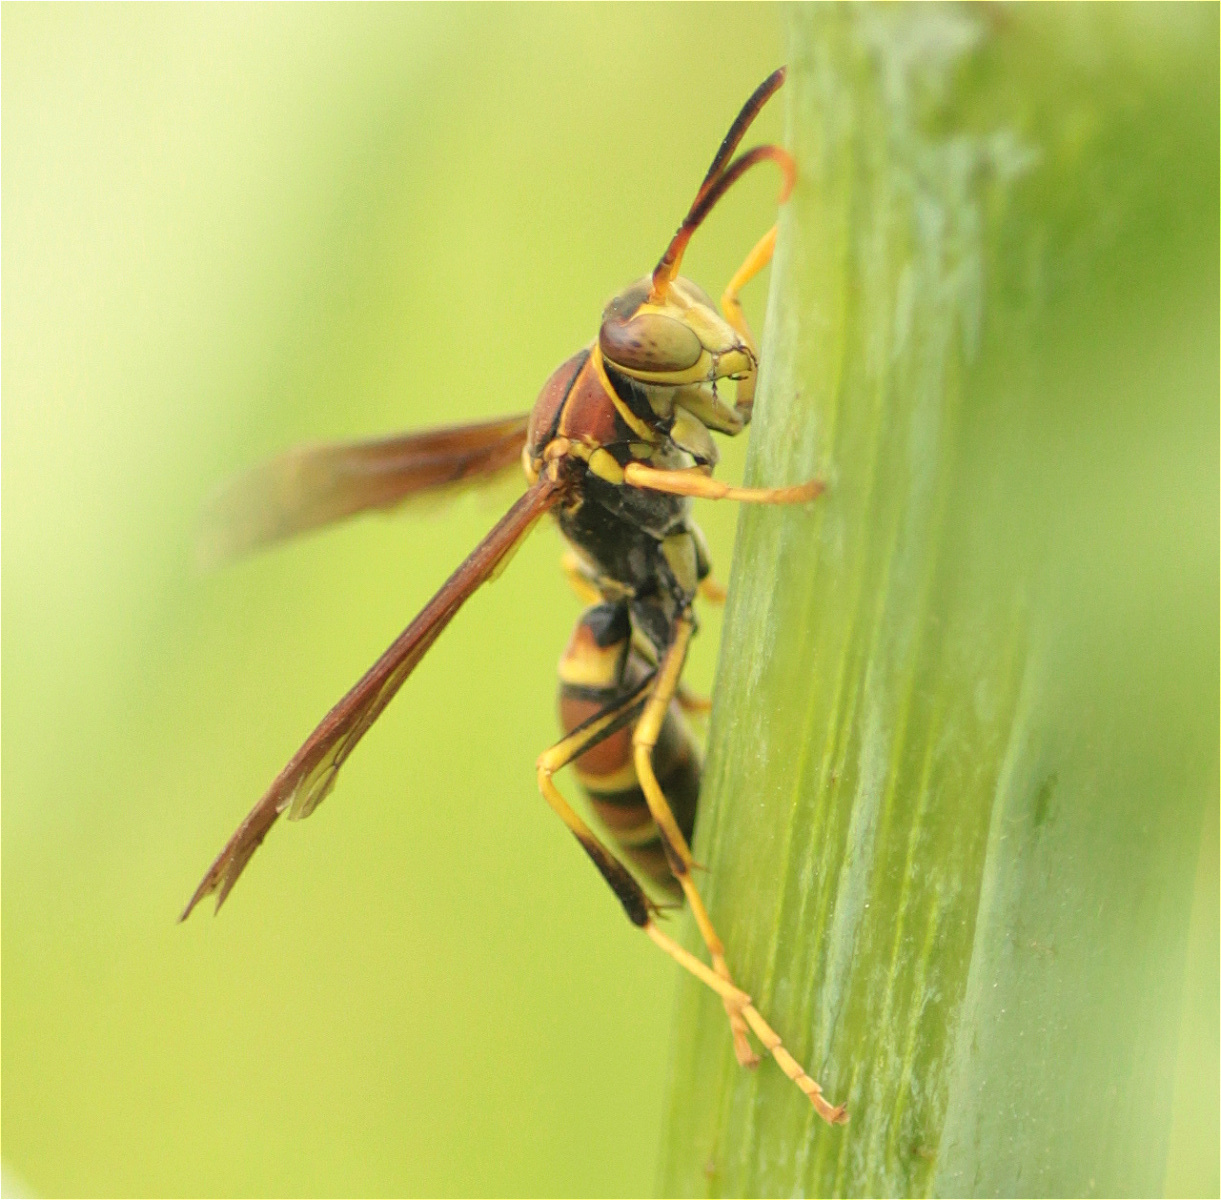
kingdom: Animalia
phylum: Arthropoda
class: Insecta
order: Hymenoptera
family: Eumenidae
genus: Polistes
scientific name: Polistes instabilis
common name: Unstable paper wasp
